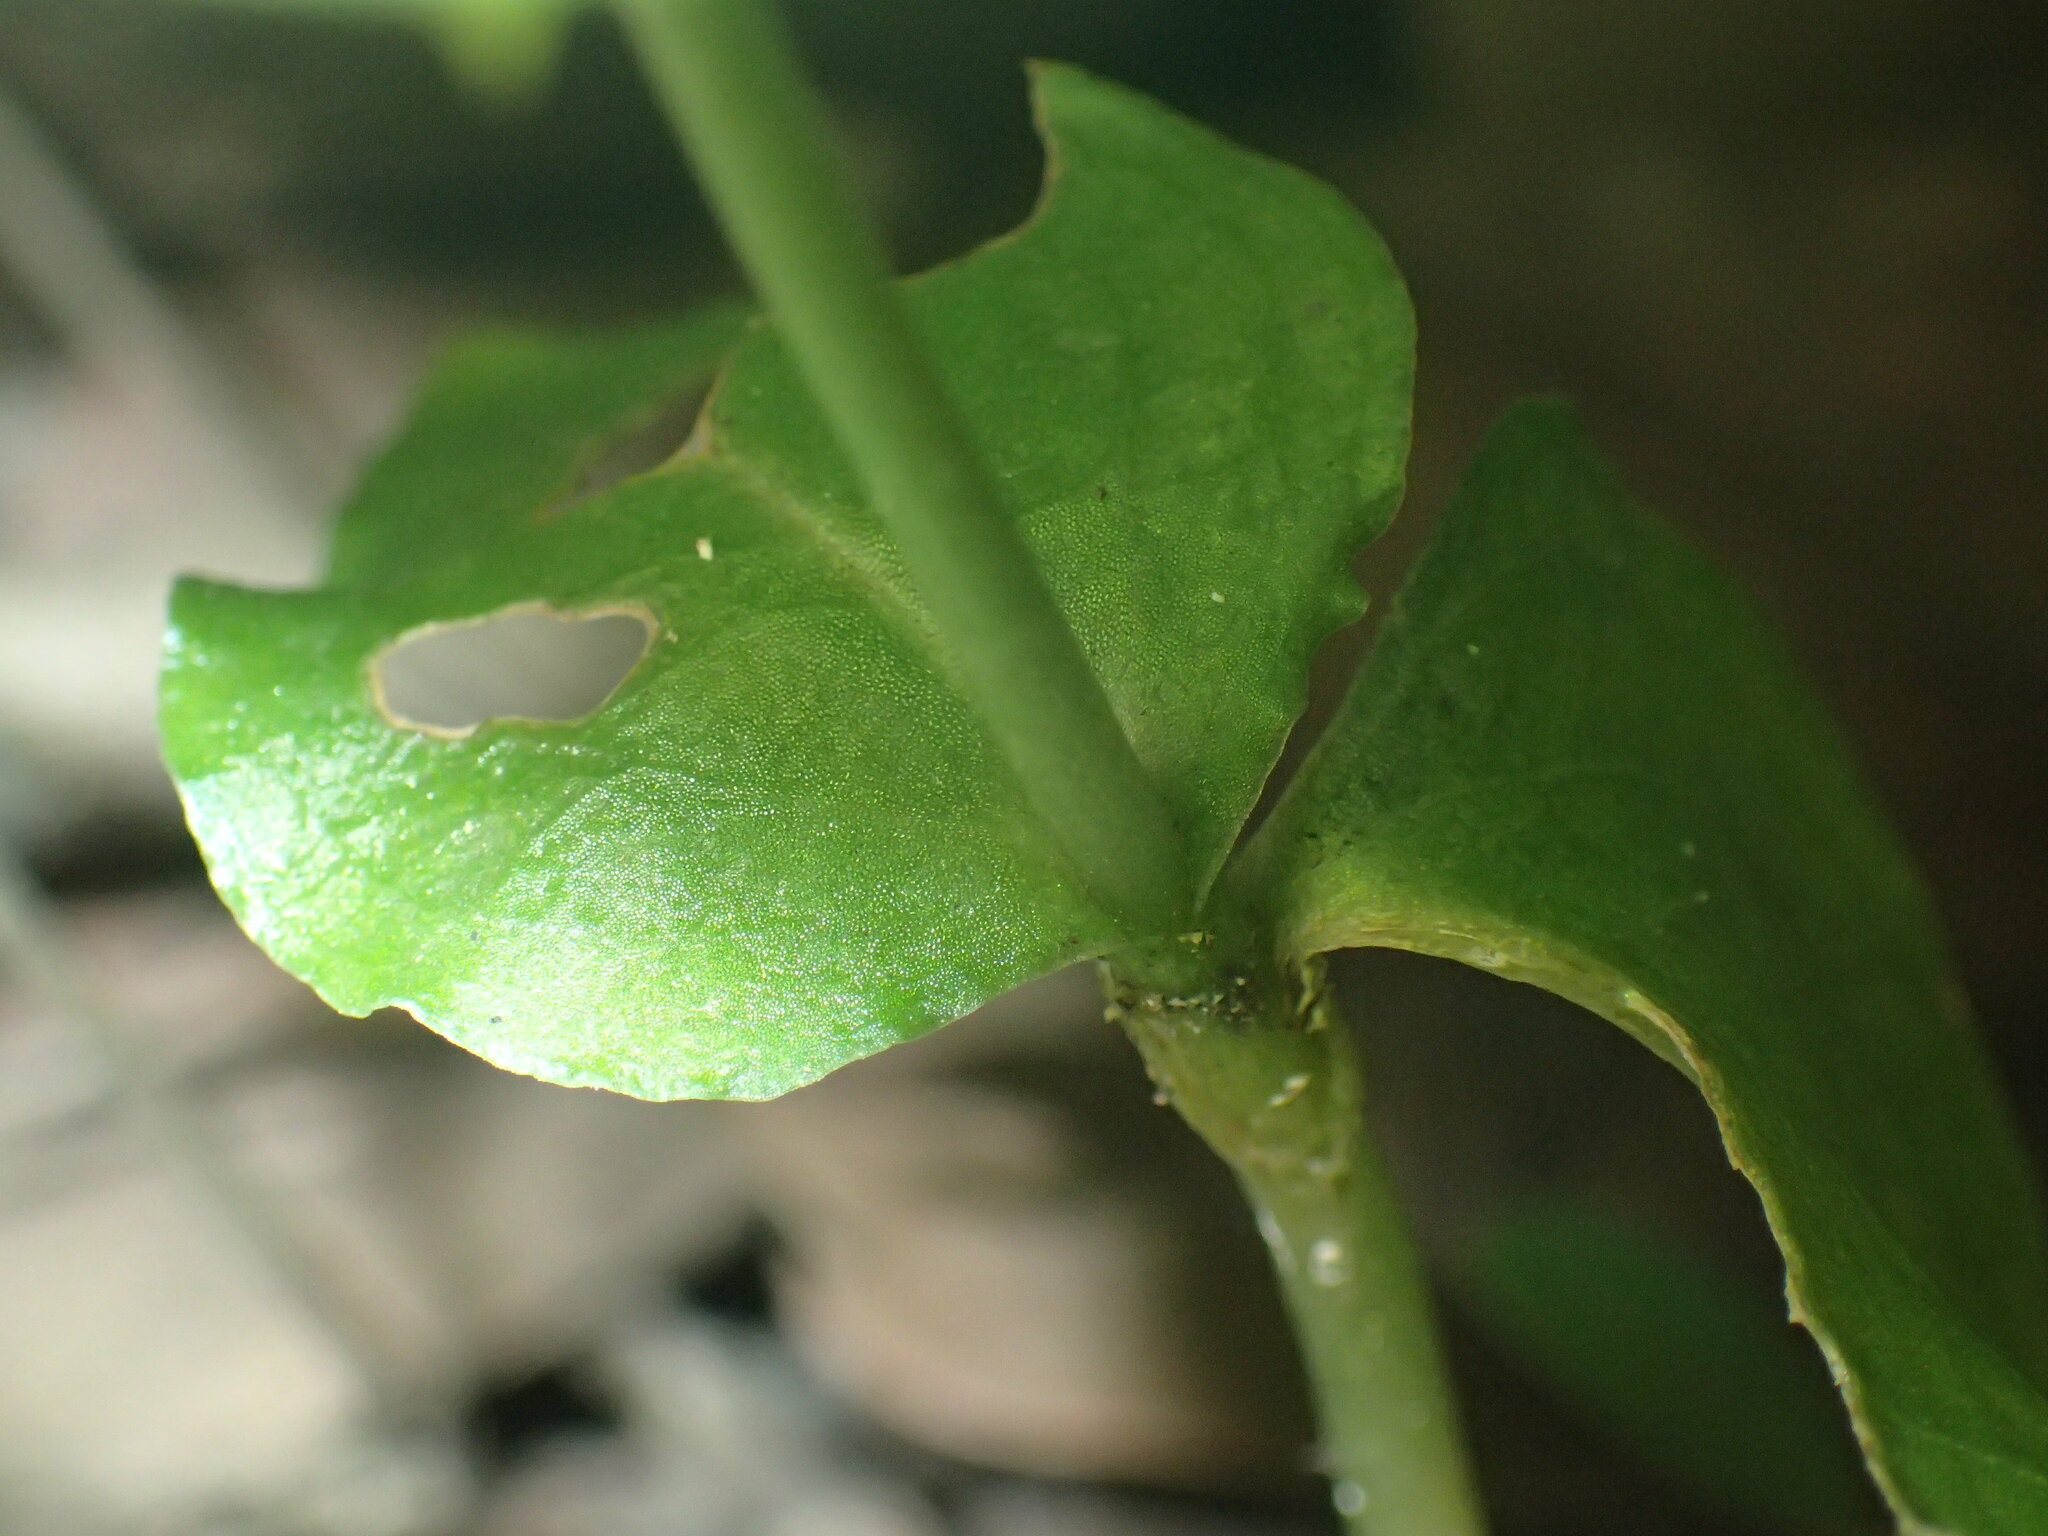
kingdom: Plantae
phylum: Tracheophyta
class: Liliopsida
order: Asparagales
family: Orchidaceae
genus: Disperis
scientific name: Disperis anthoceros
